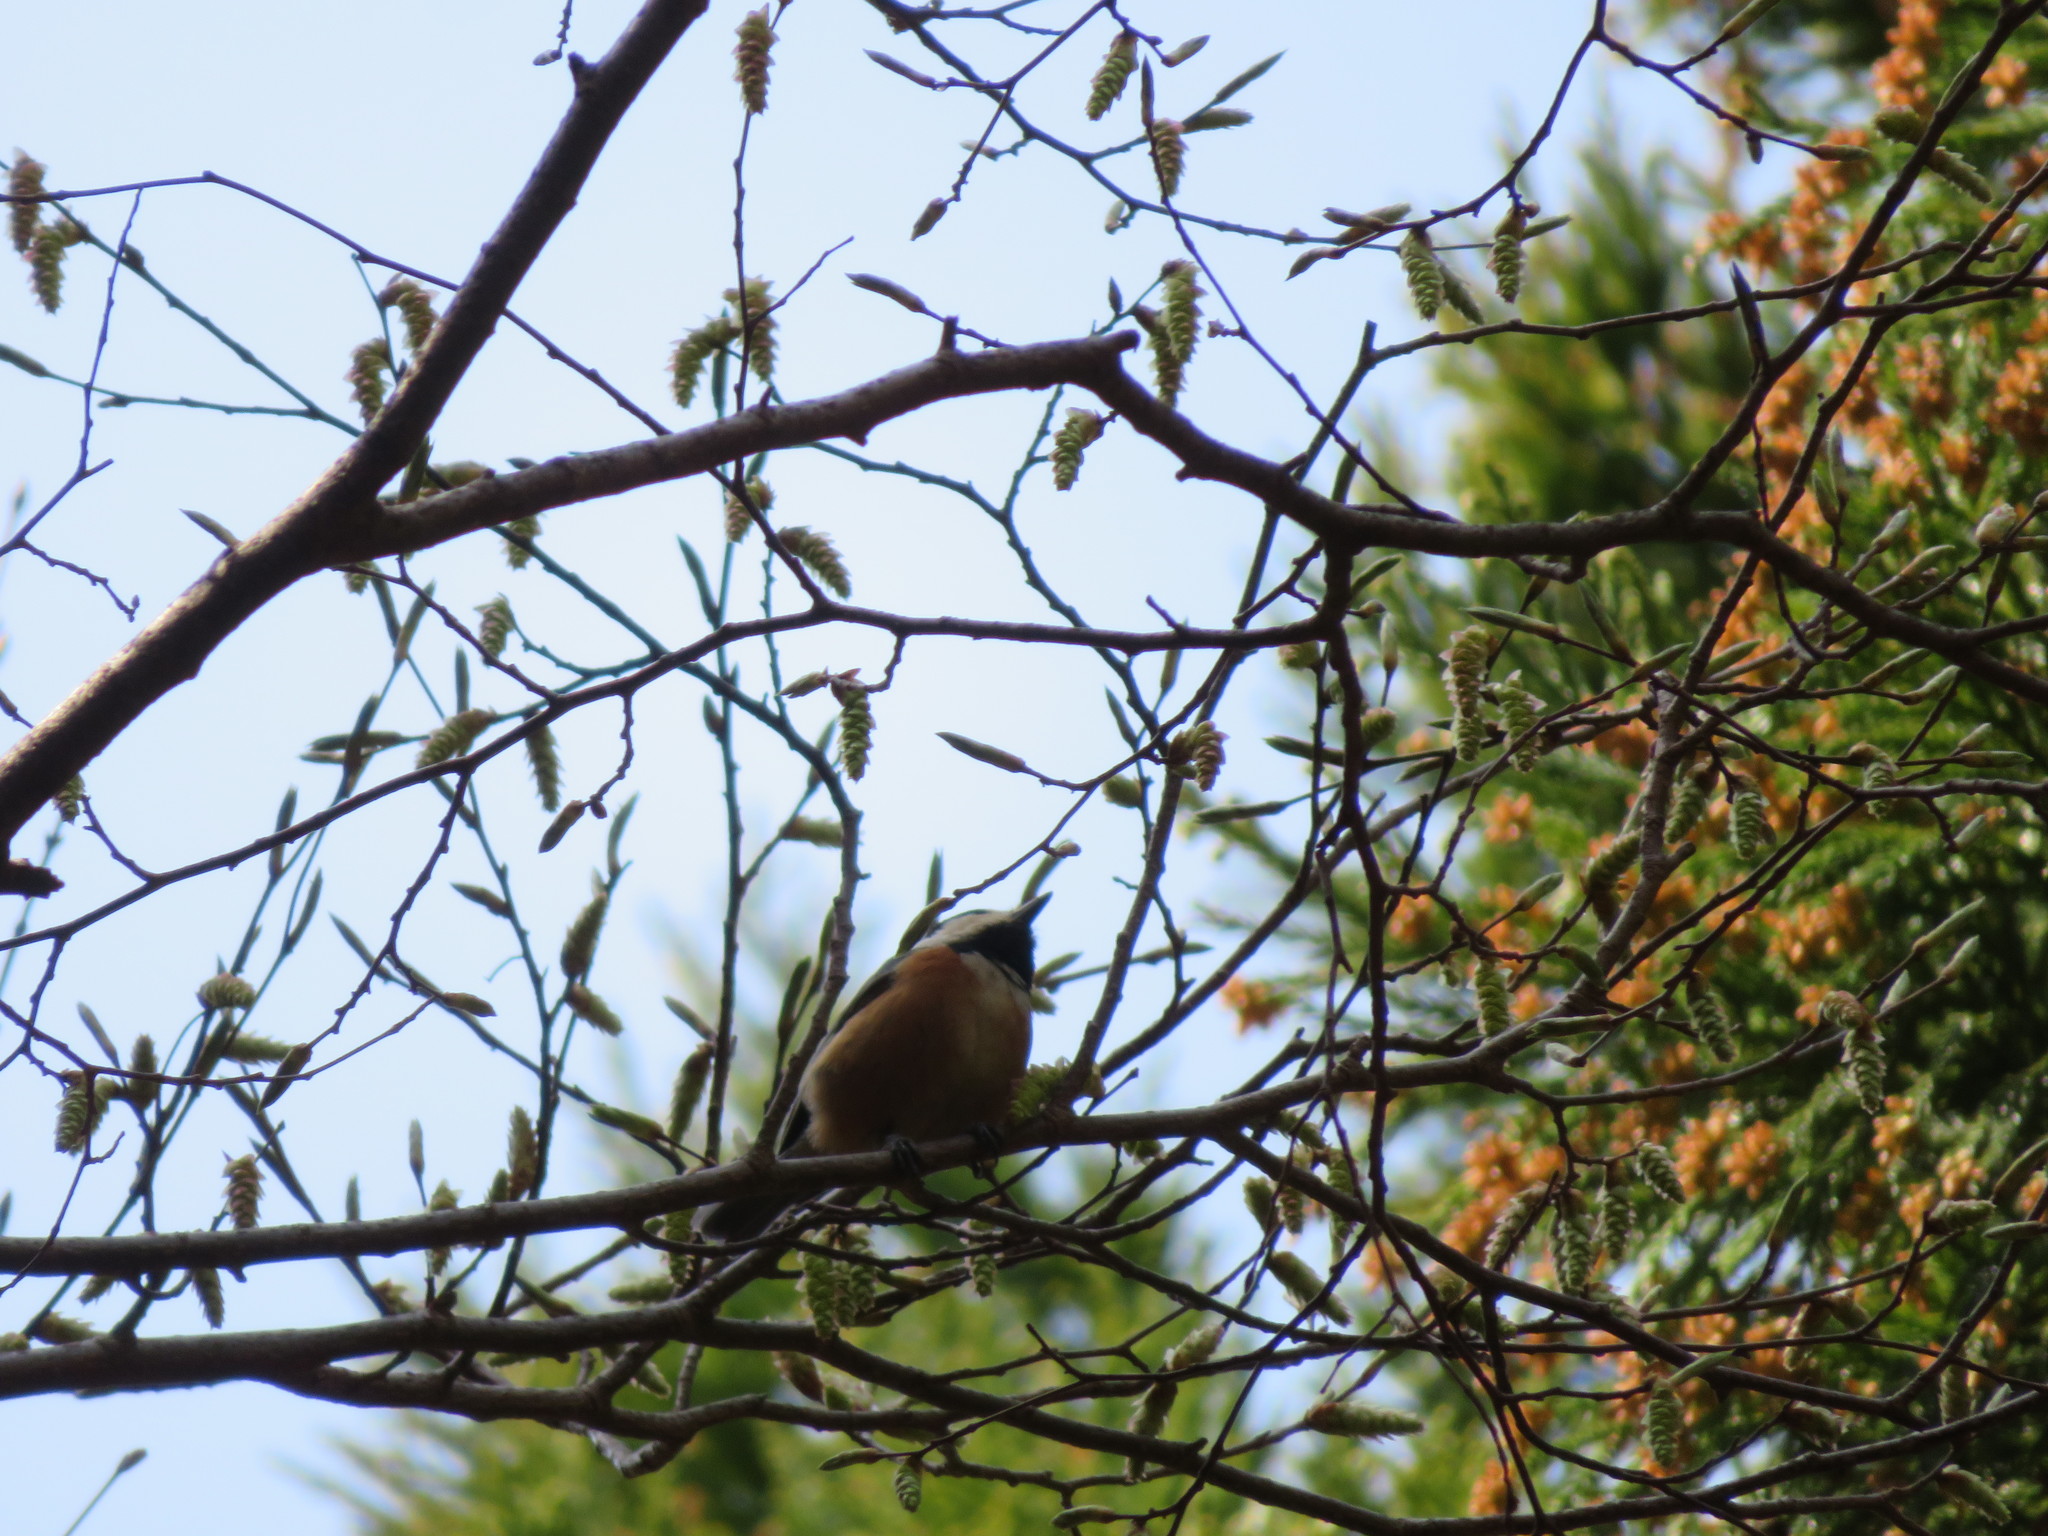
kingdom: Animalia
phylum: Chordata
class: Aves
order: Passeriformes
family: Paridae
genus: Poecile
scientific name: Poecile varius
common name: Varied tit
